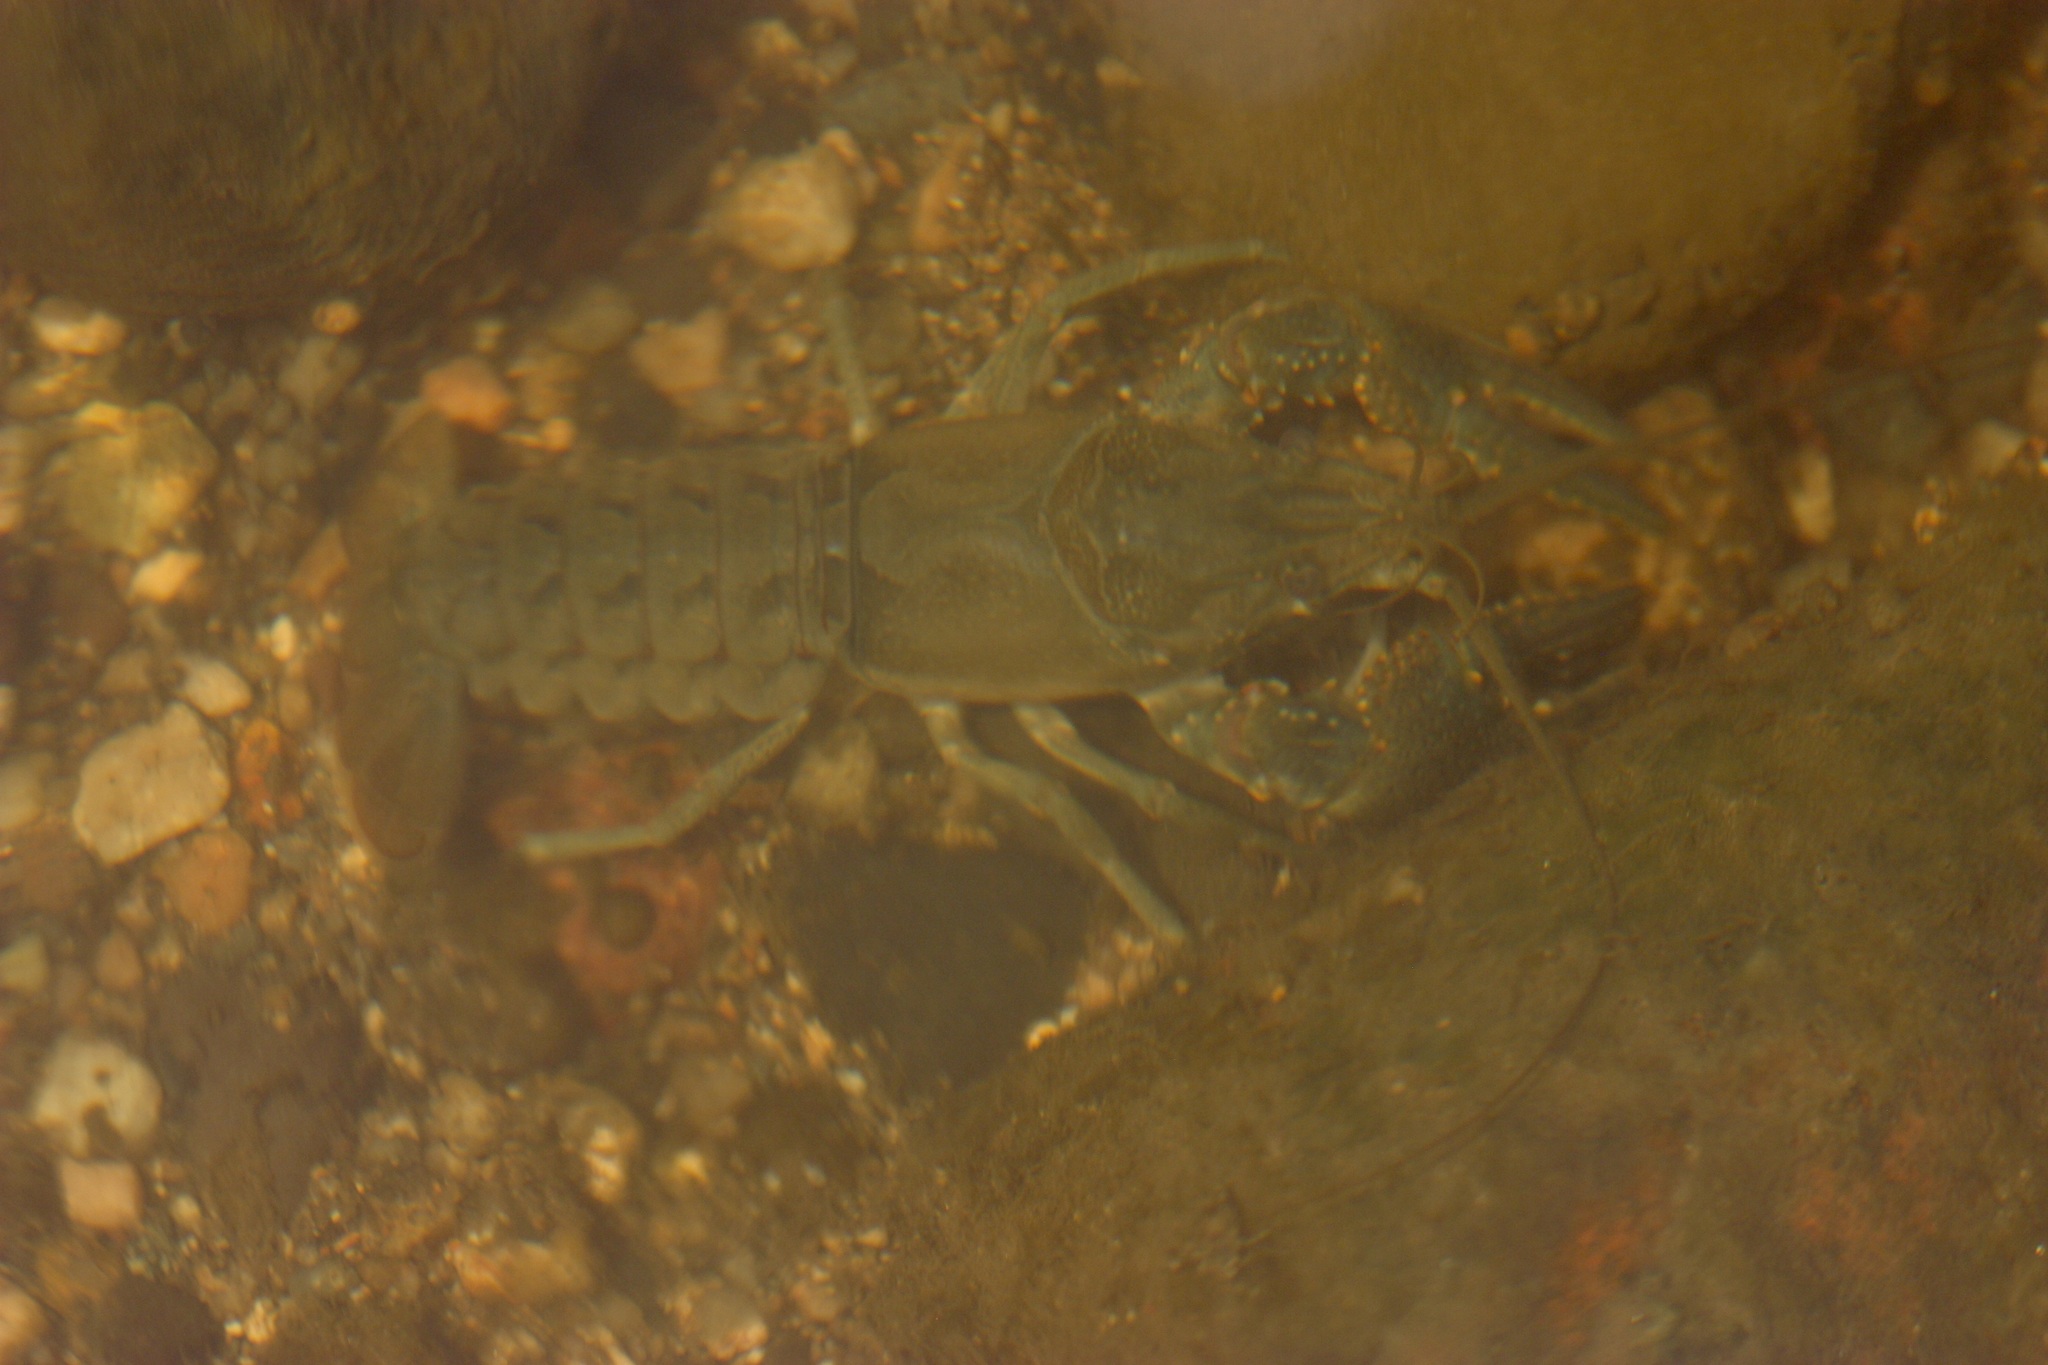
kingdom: Animalia
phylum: Arthropoda
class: Malacostraca
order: Decapoda
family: Cambaridae
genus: Faxonius
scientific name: Faxonius virilis
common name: Virile crayfish
